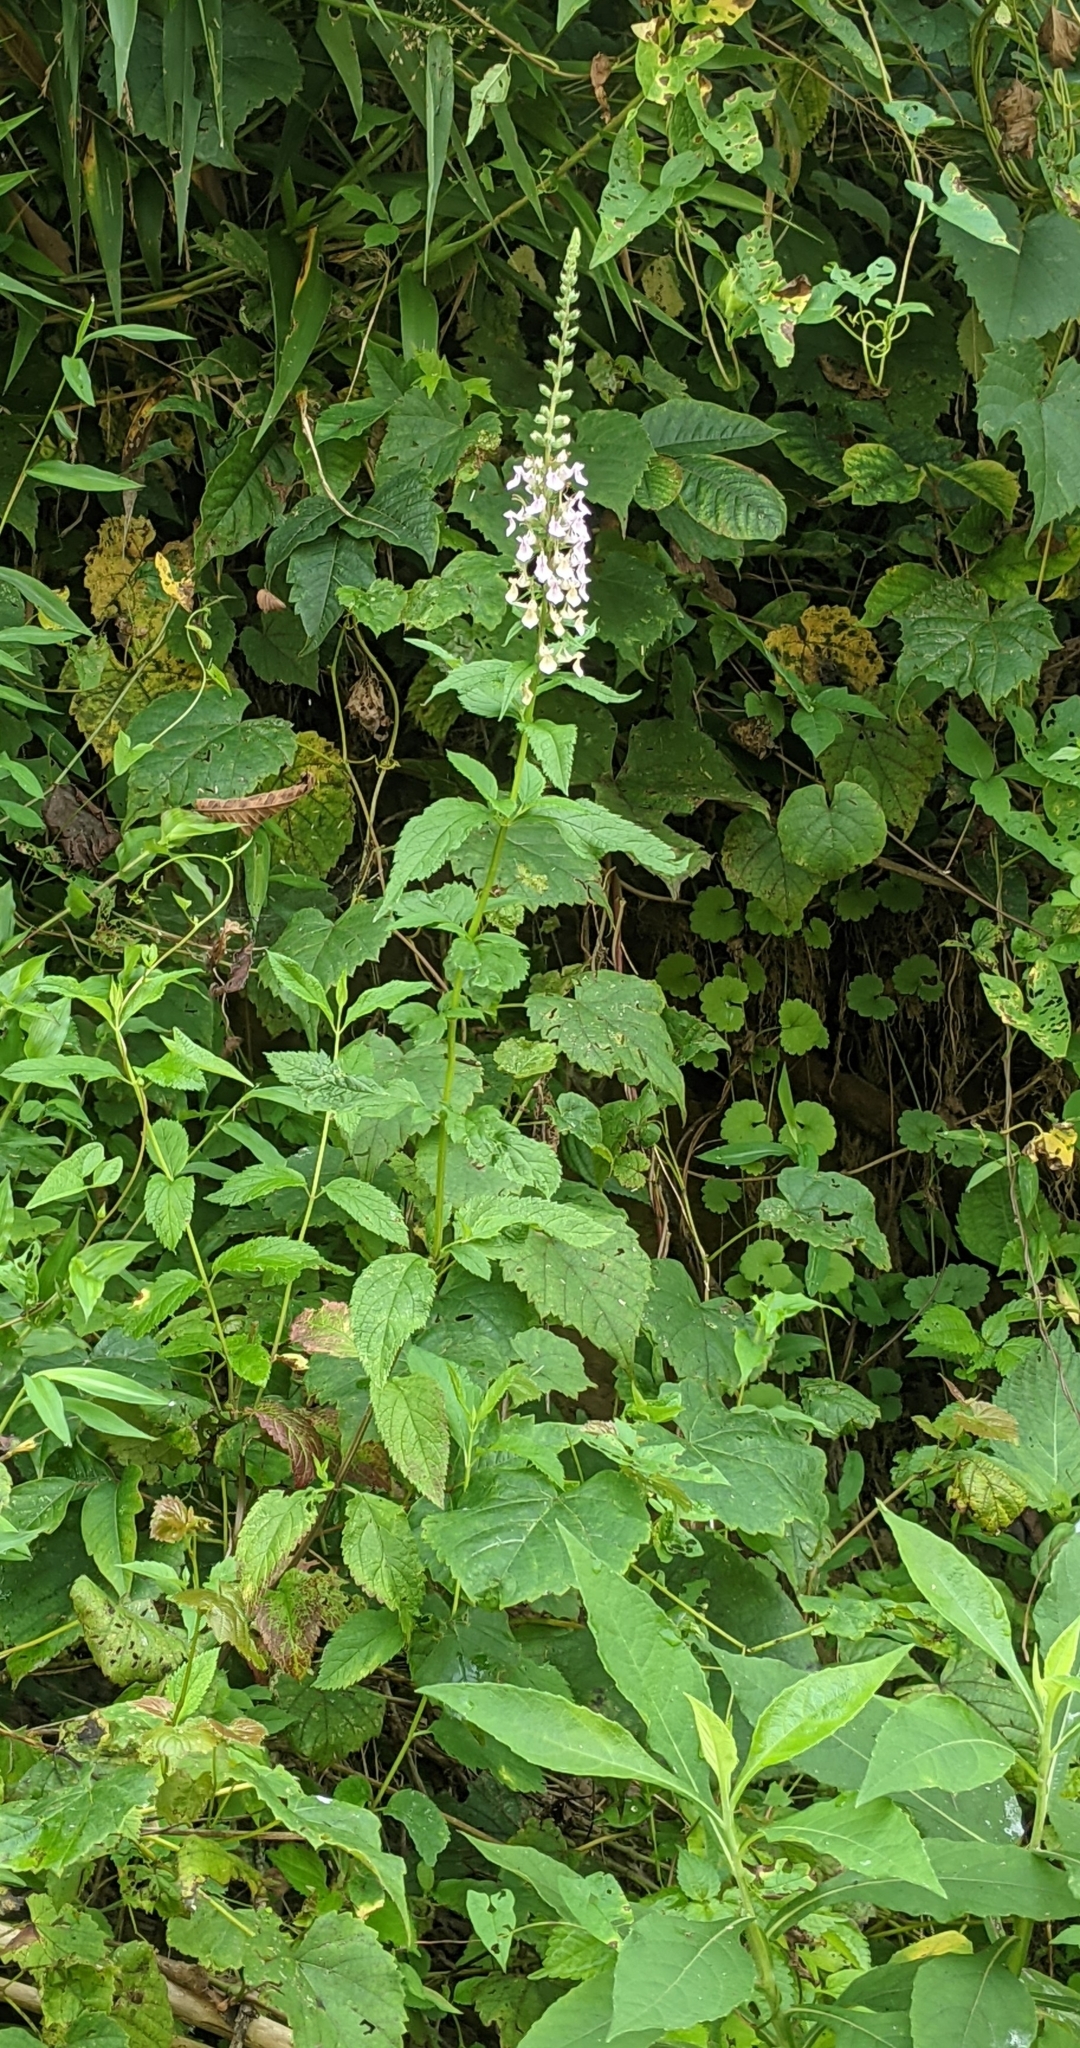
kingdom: Plantae
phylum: Tracheophyta
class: Magnoliopsida
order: Lamiales
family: Lamiaceae
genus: Teucrium
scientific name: Teucrium canadense
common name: American germander
